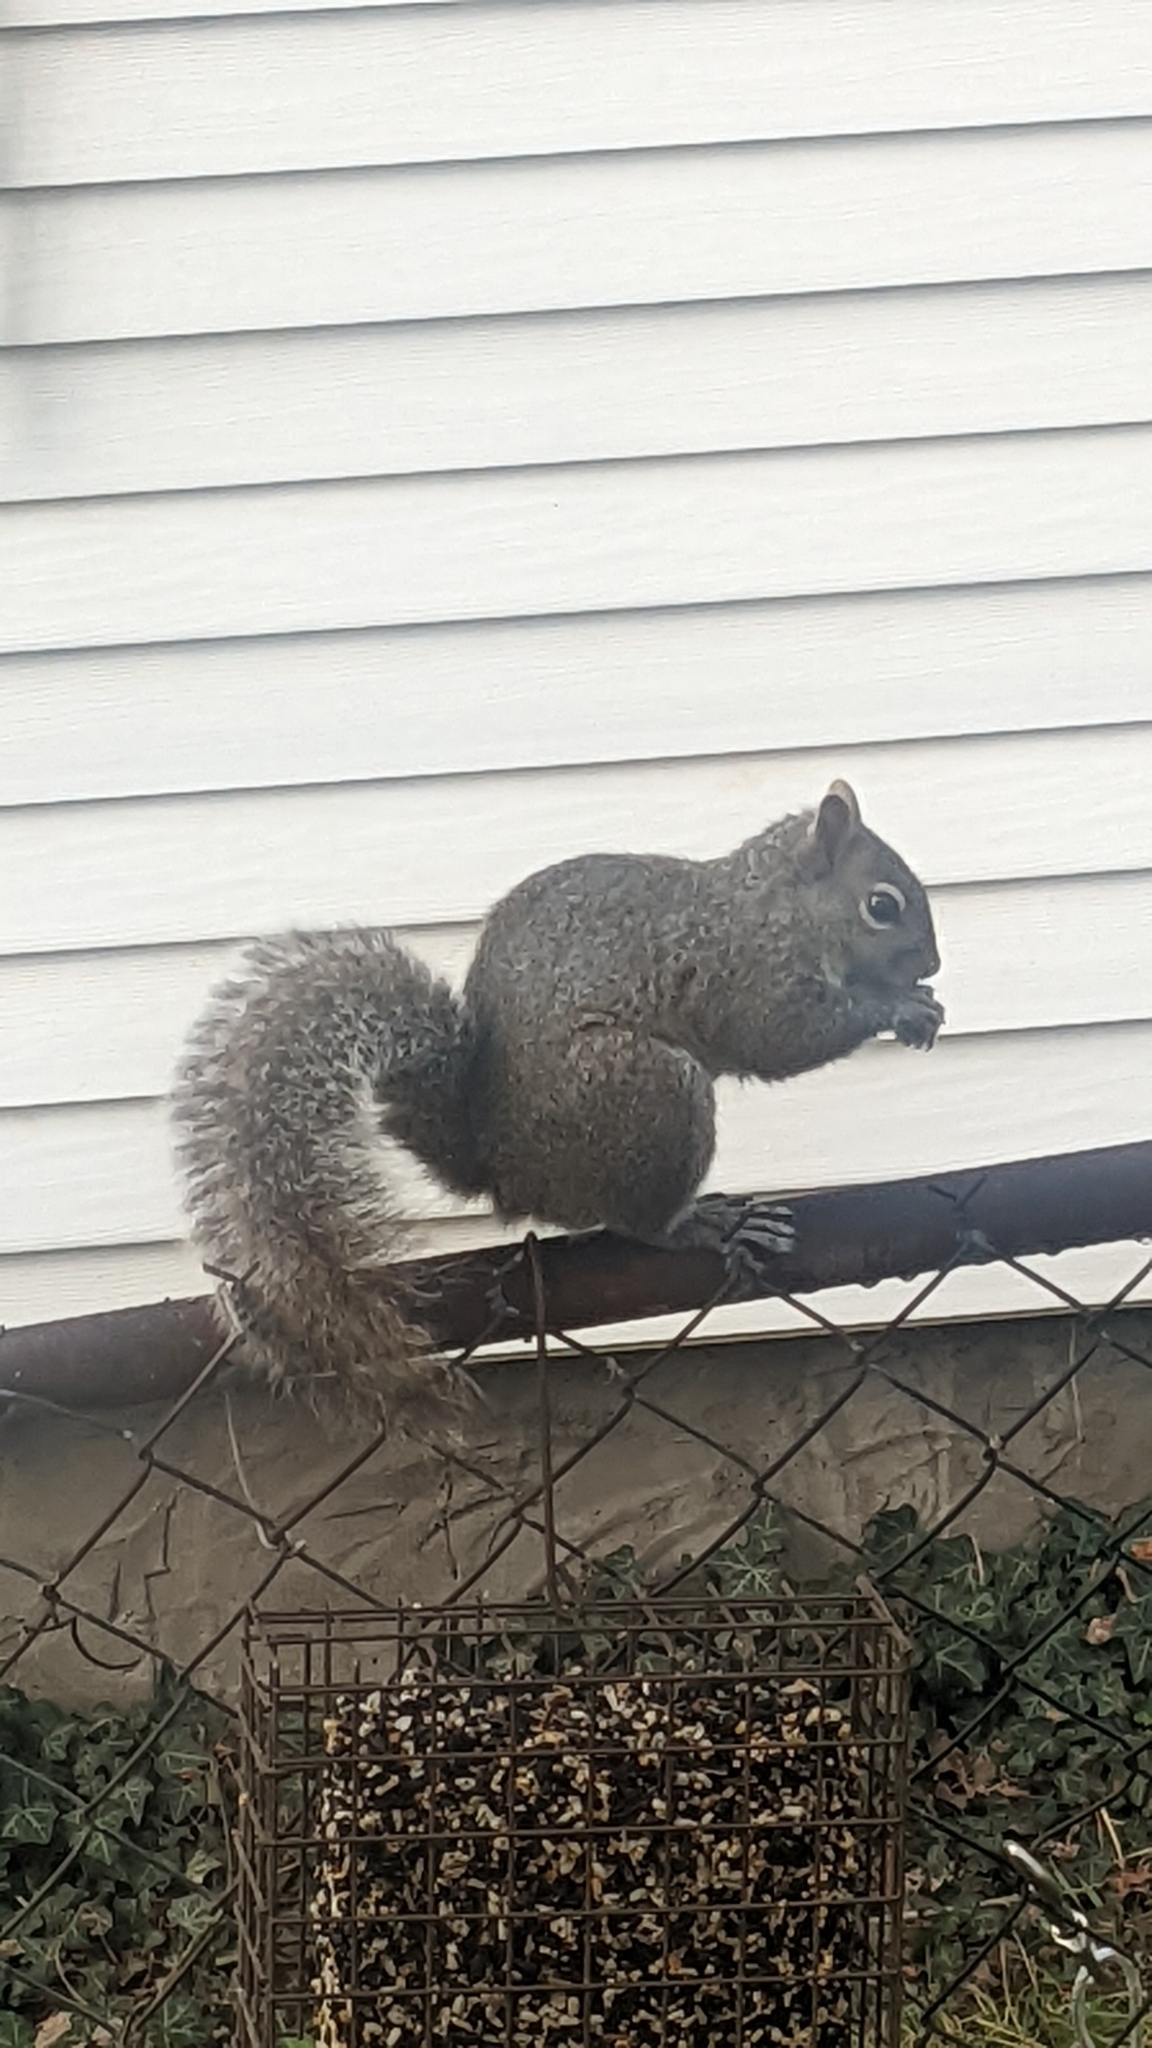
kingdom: Animalia
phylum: Chordata
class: Mammalia
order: Rodentia
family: Sciuridae
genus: Sciurus
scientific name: Sciurus carolinensis
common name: Eastern gray squirrel
